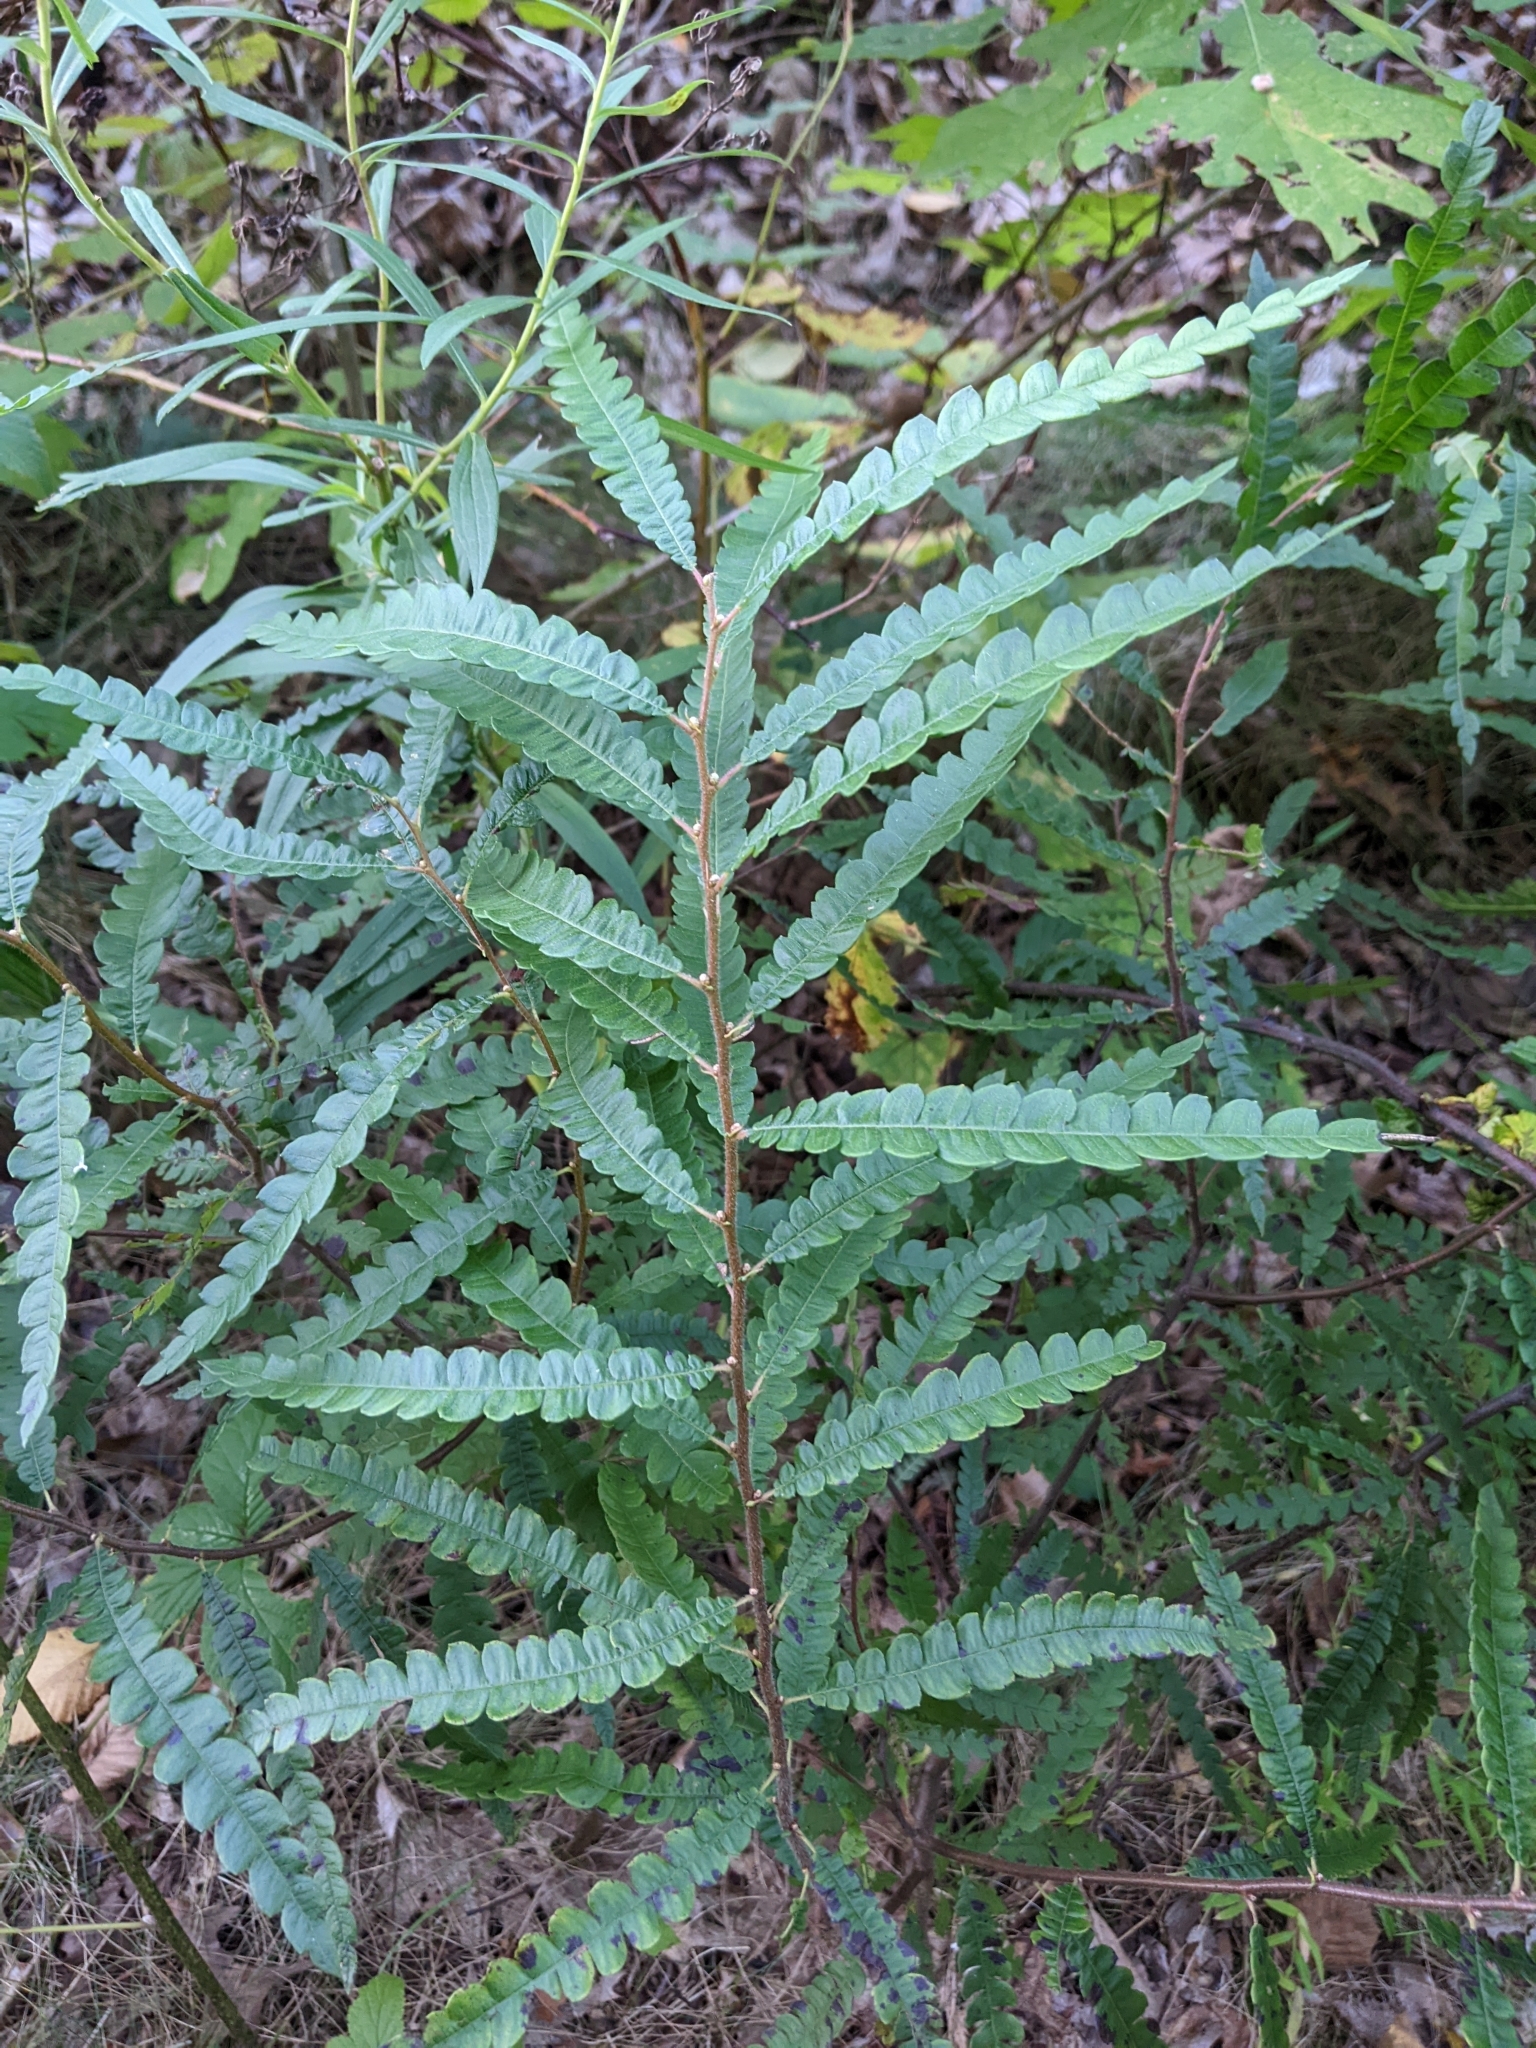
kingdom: Plantae
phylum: Tracheophyta
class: Magnoliopsida
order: Fagales
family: Myricaceae
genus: Comptonia
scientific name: Comptonia peregrina
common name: Sweet-fern
